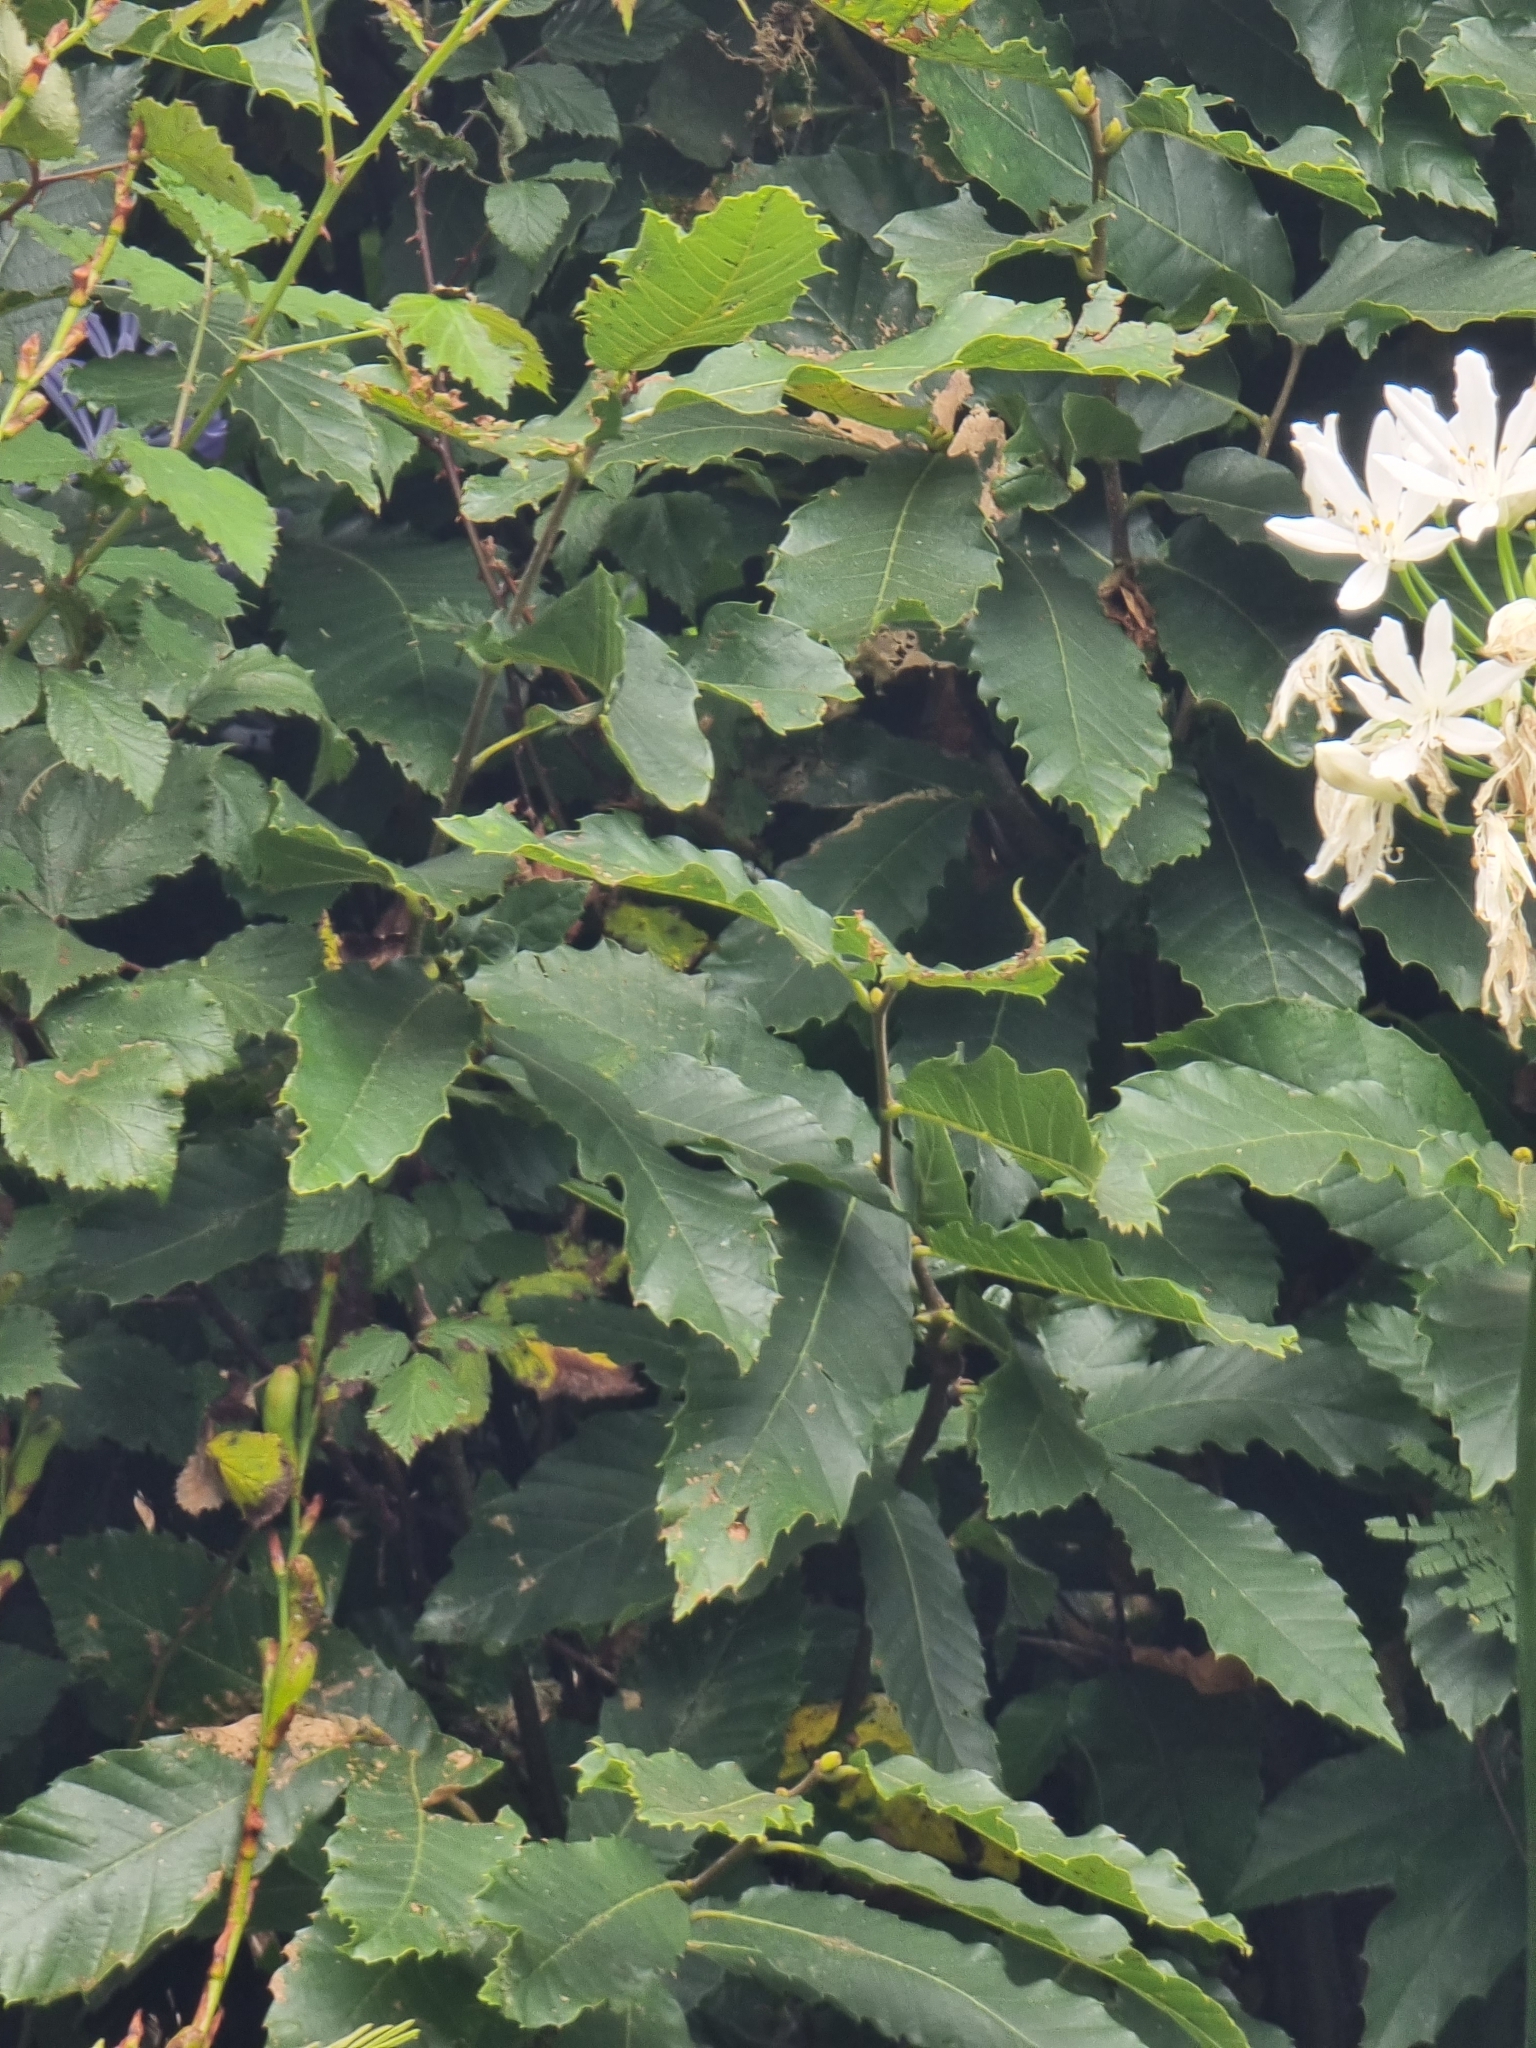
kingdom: Plantae
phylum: Tracheophyta
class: Magnoliopsida
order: Fagales
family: Fagaceae
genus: Castanea
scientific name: Castanea sativa
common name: Sweet chestnut
